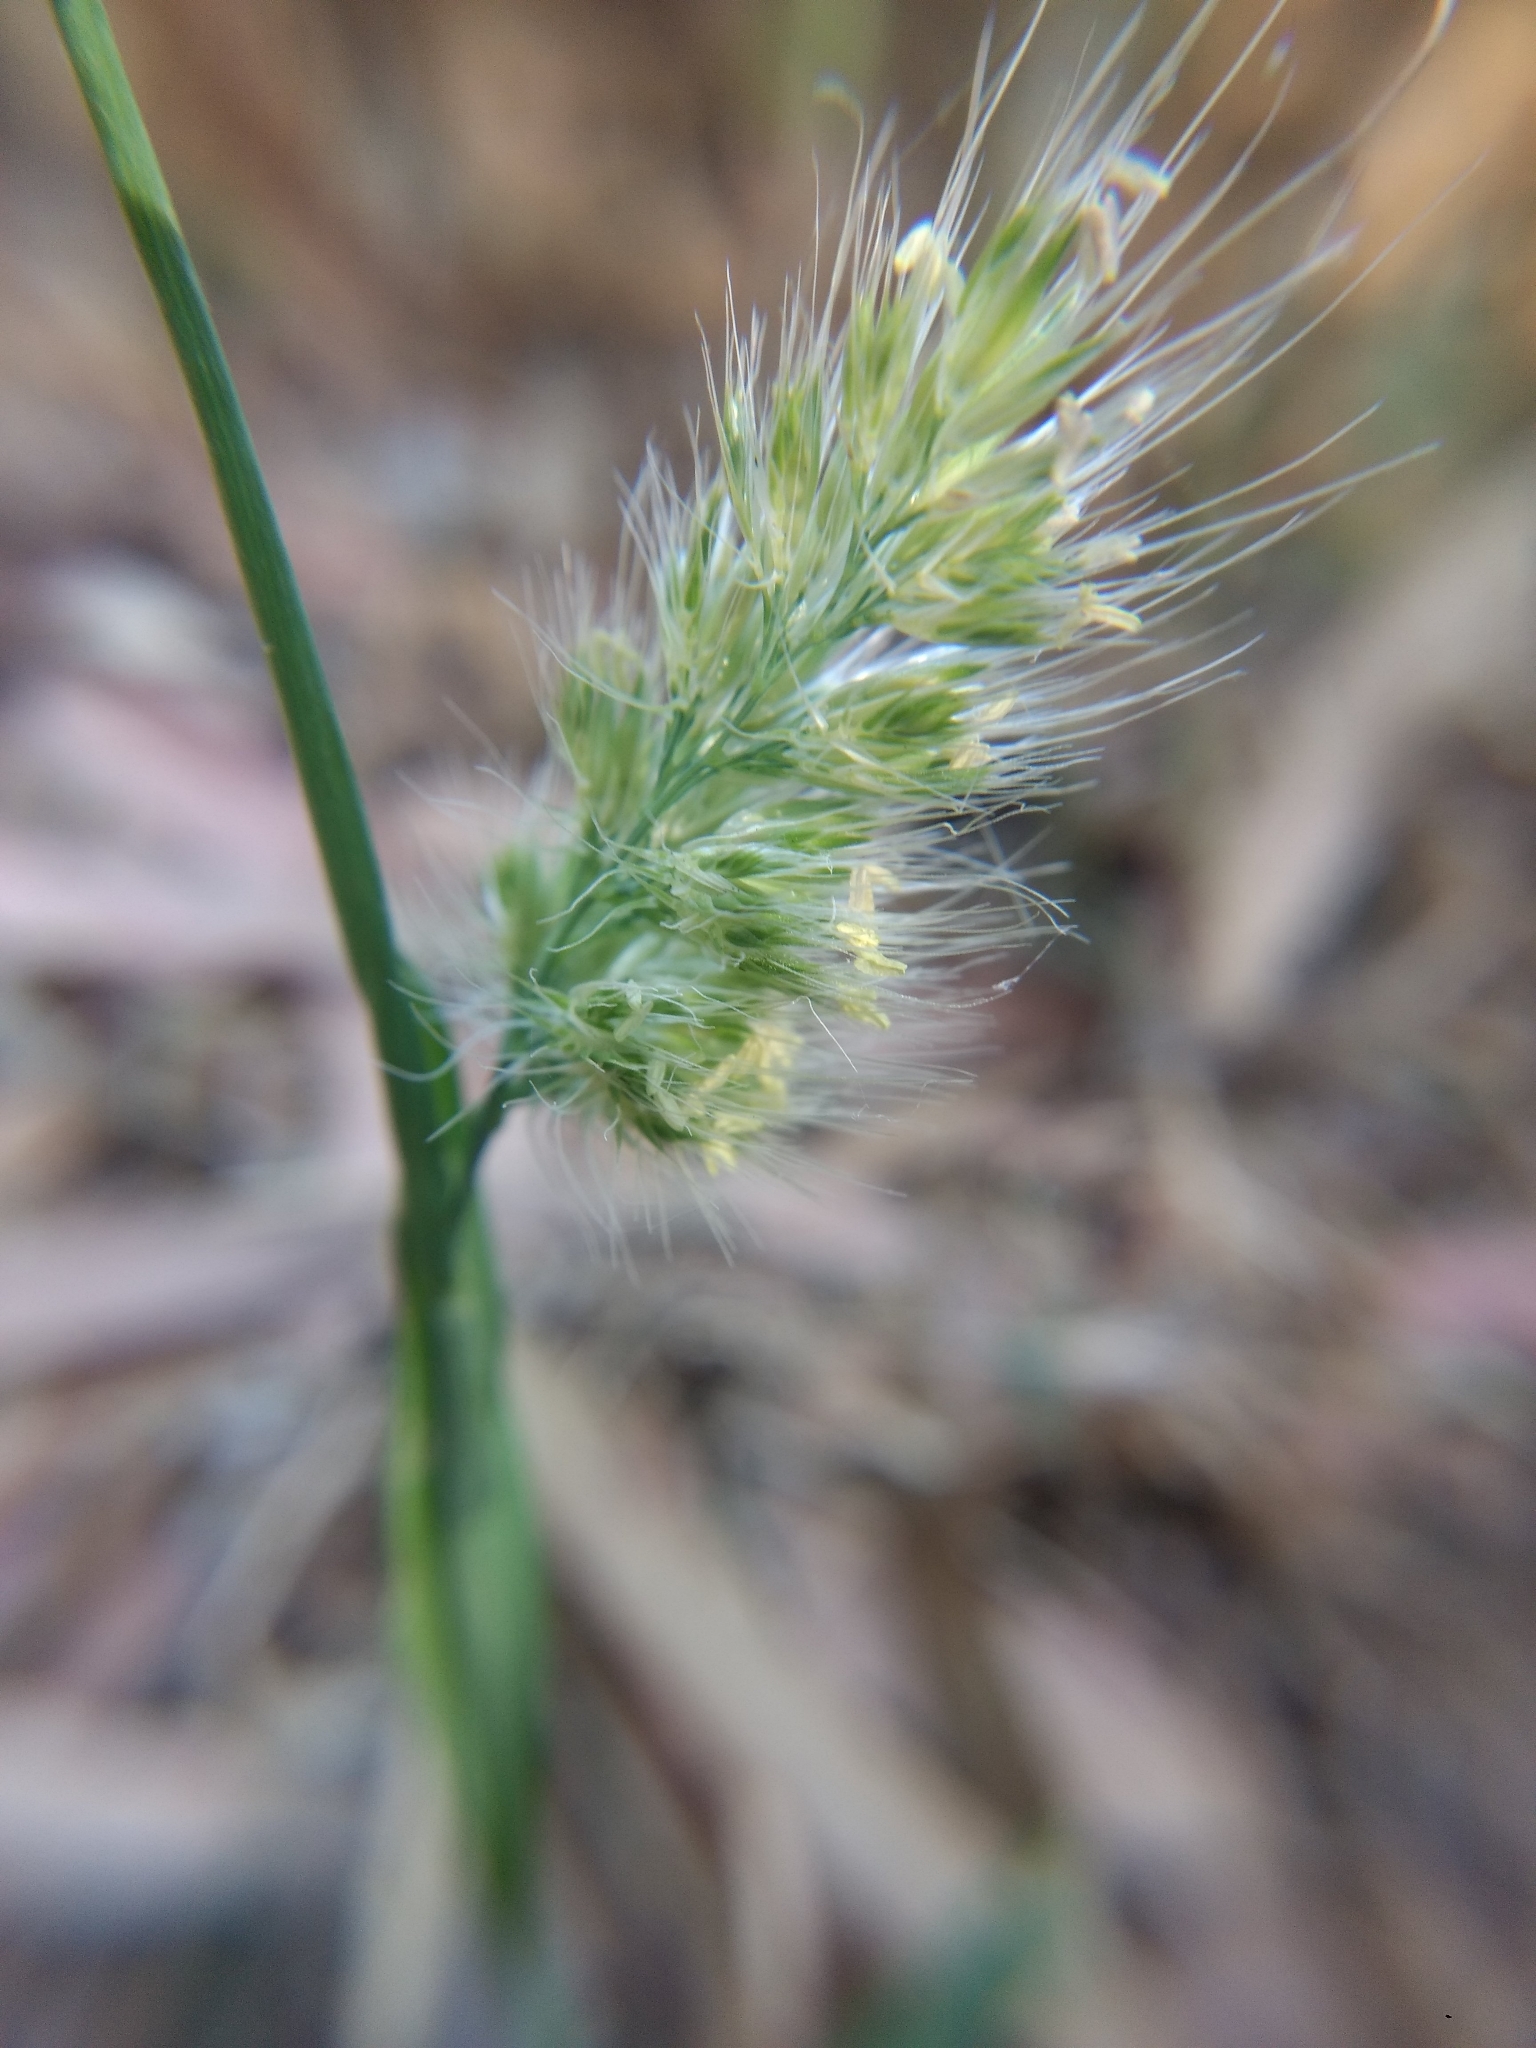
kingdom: Plantae
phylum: Tracheophyta
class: Liliopsida
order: Poales
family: Poaceae
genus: Cynosurus
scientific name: Cynosurus echinatus
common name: Rough dog's-tail
